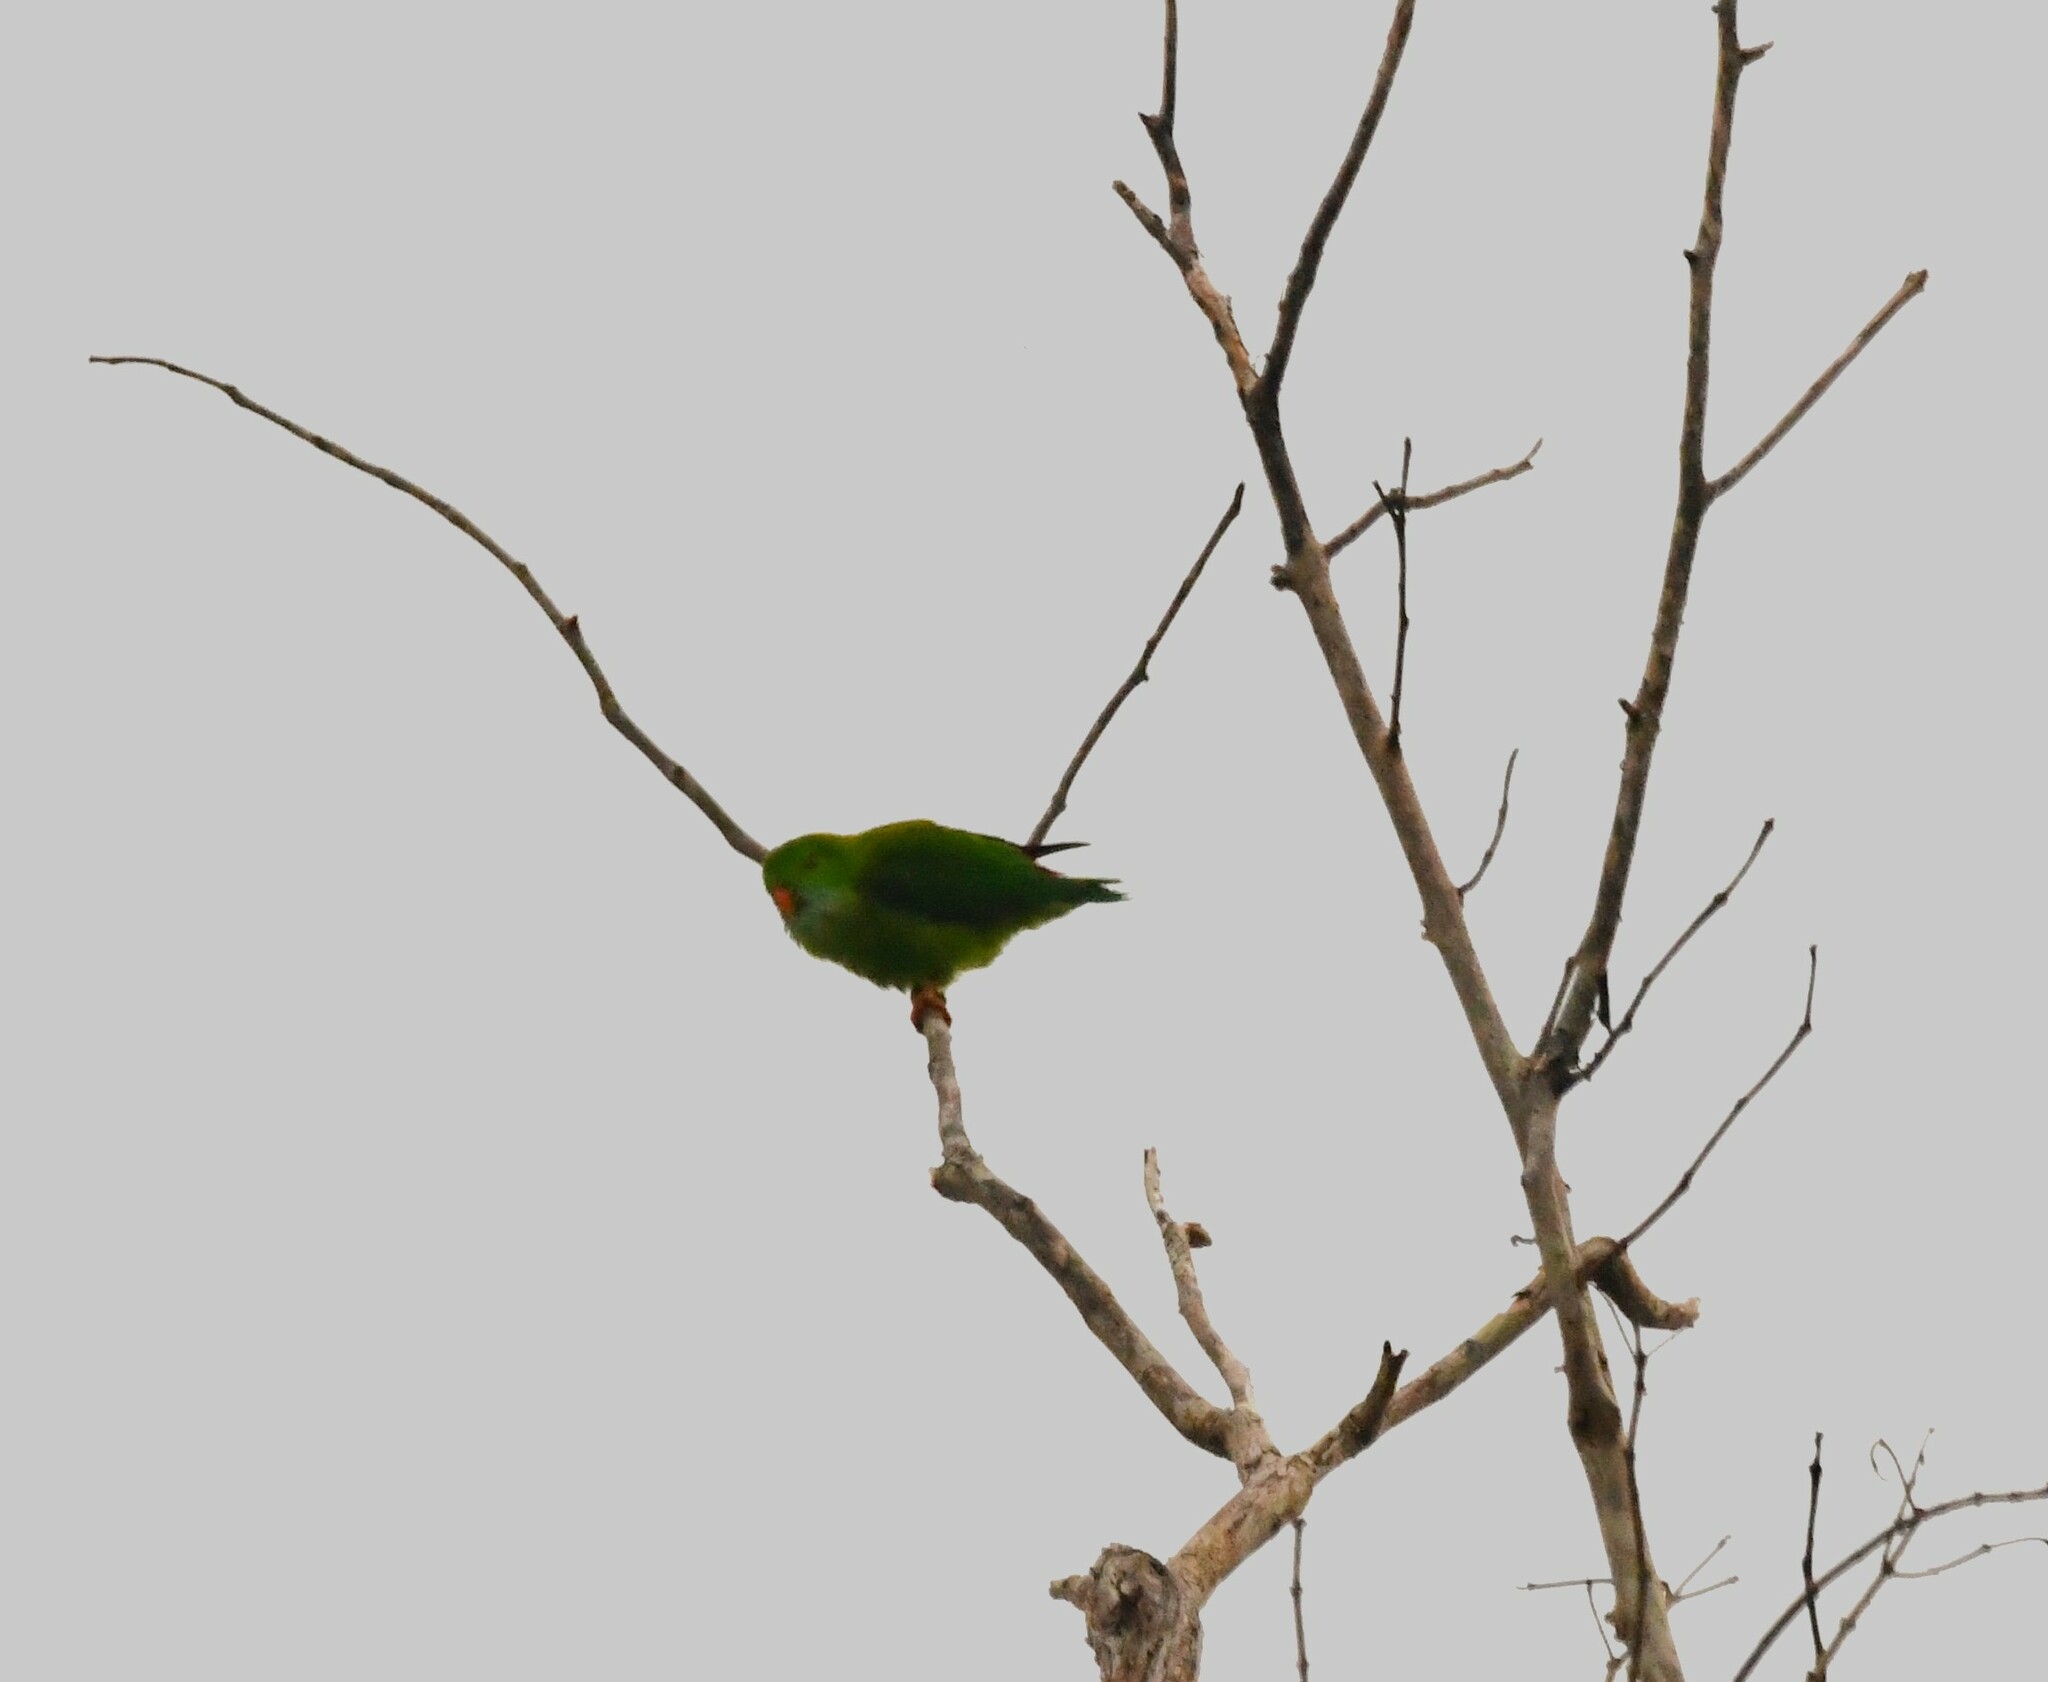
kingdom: Animalia
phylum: Chordata
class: Aves
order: Psittaciformes
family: Psittacidae
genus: Loriculus
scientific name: Loriculus vernalis
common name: Vernal hanging parrot
